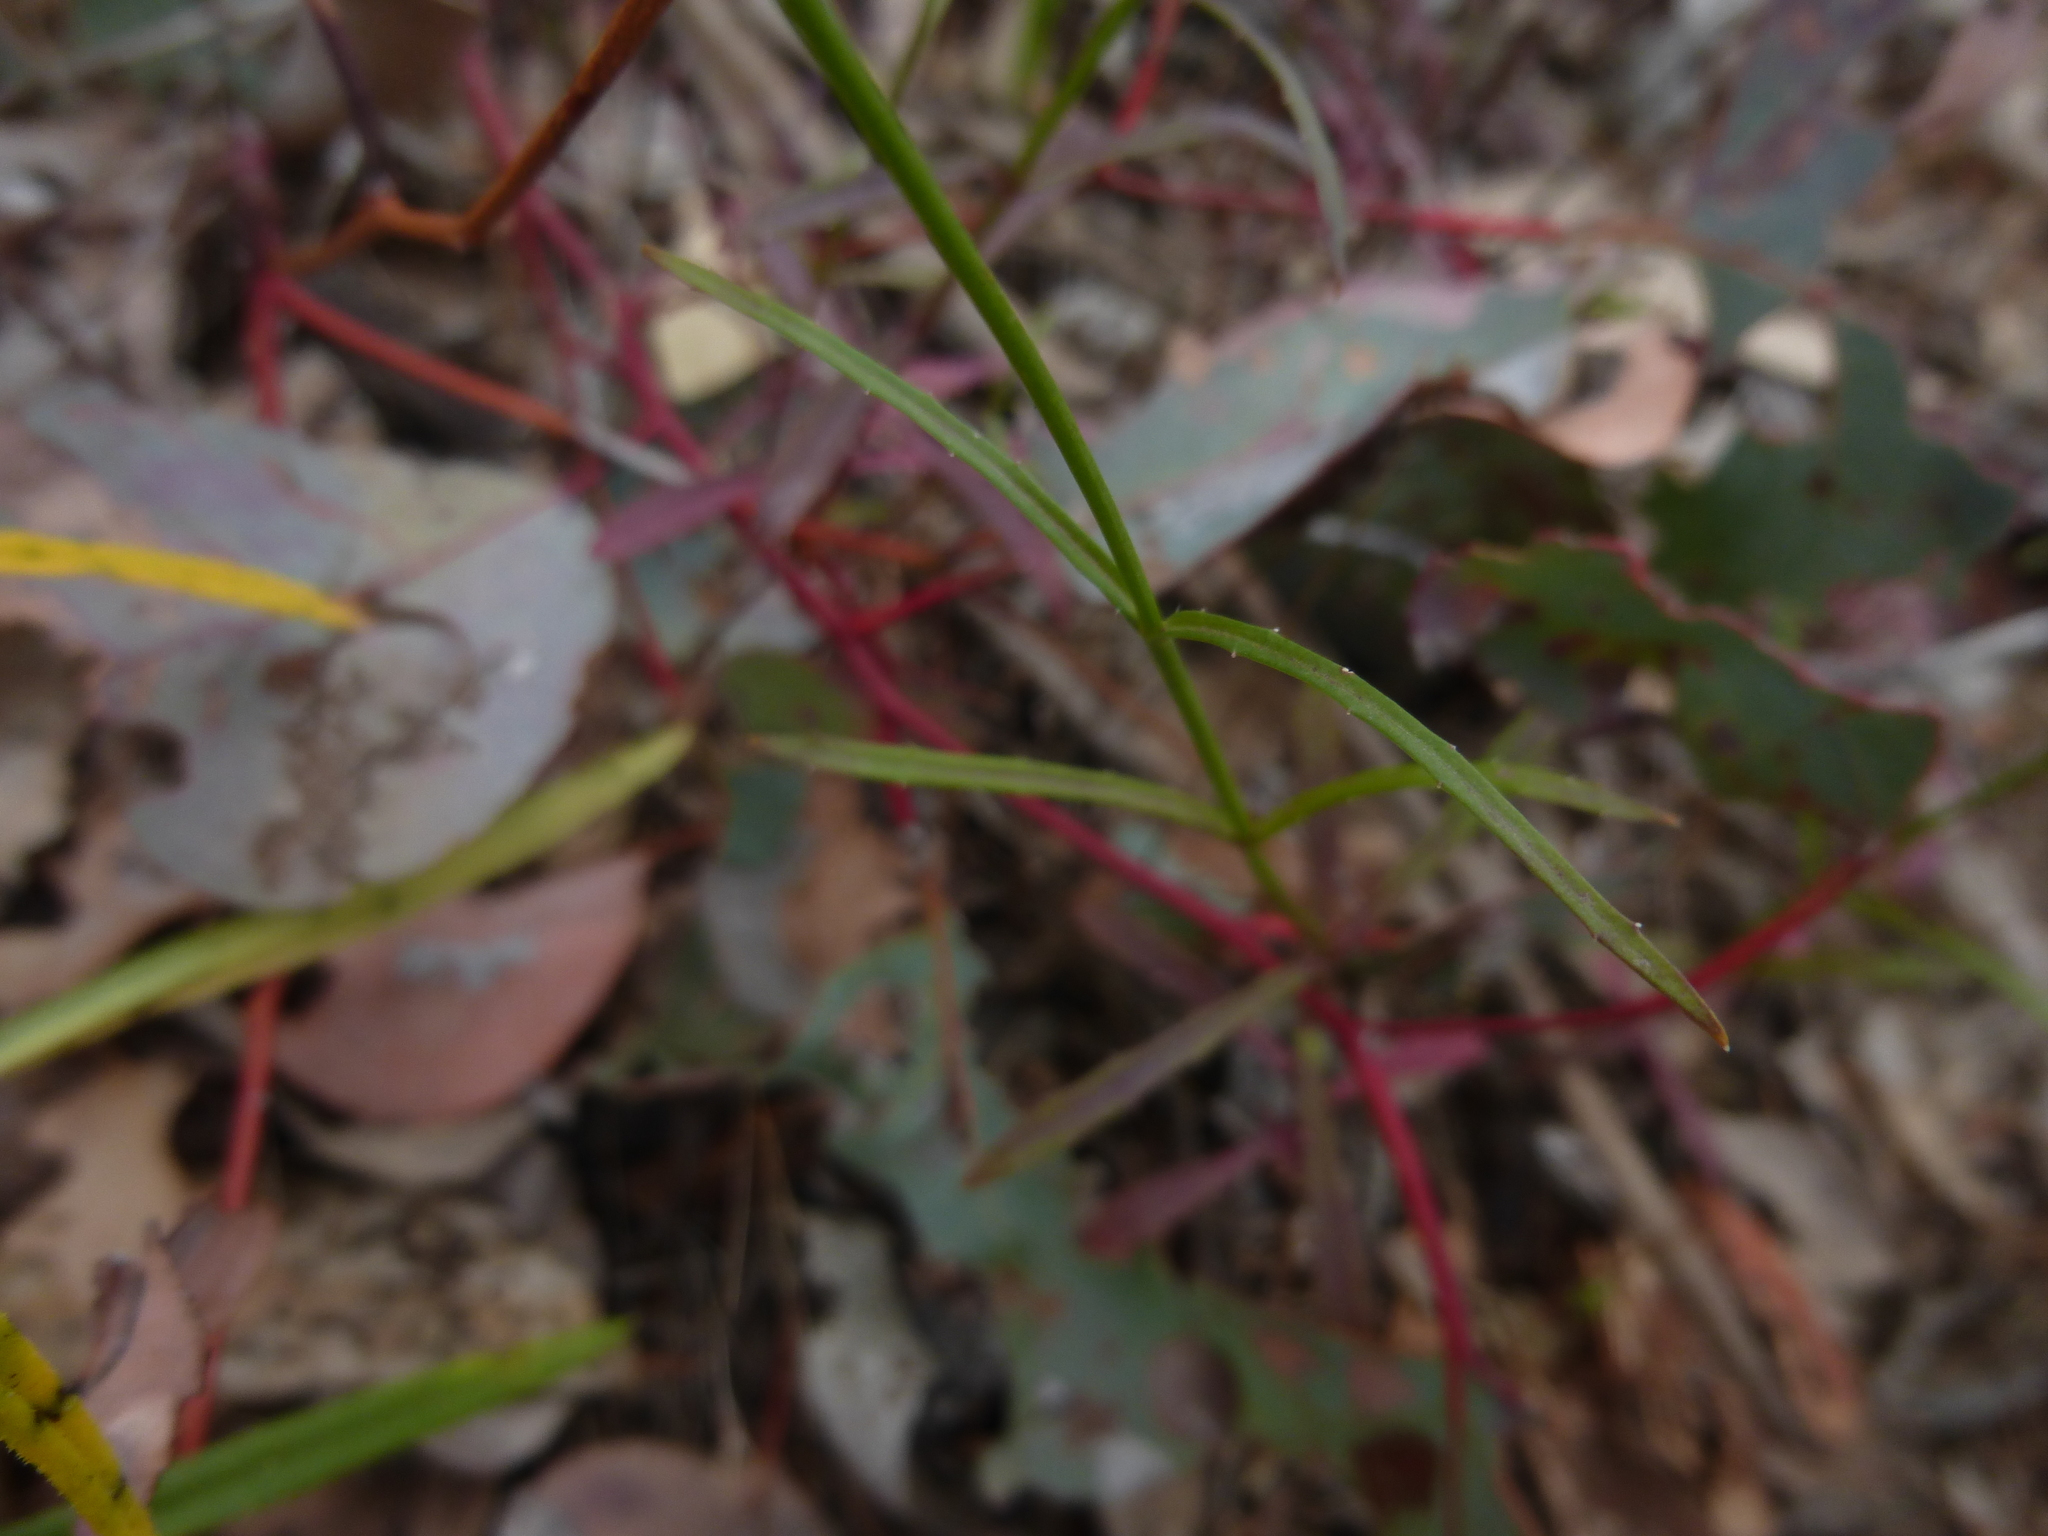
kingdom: Plantae
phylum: Tracheophyta
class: Magnoliopsida
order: Asterales
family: Campanulaceae
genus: Wahlenbergia
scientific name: Wahlenbergia stricta
